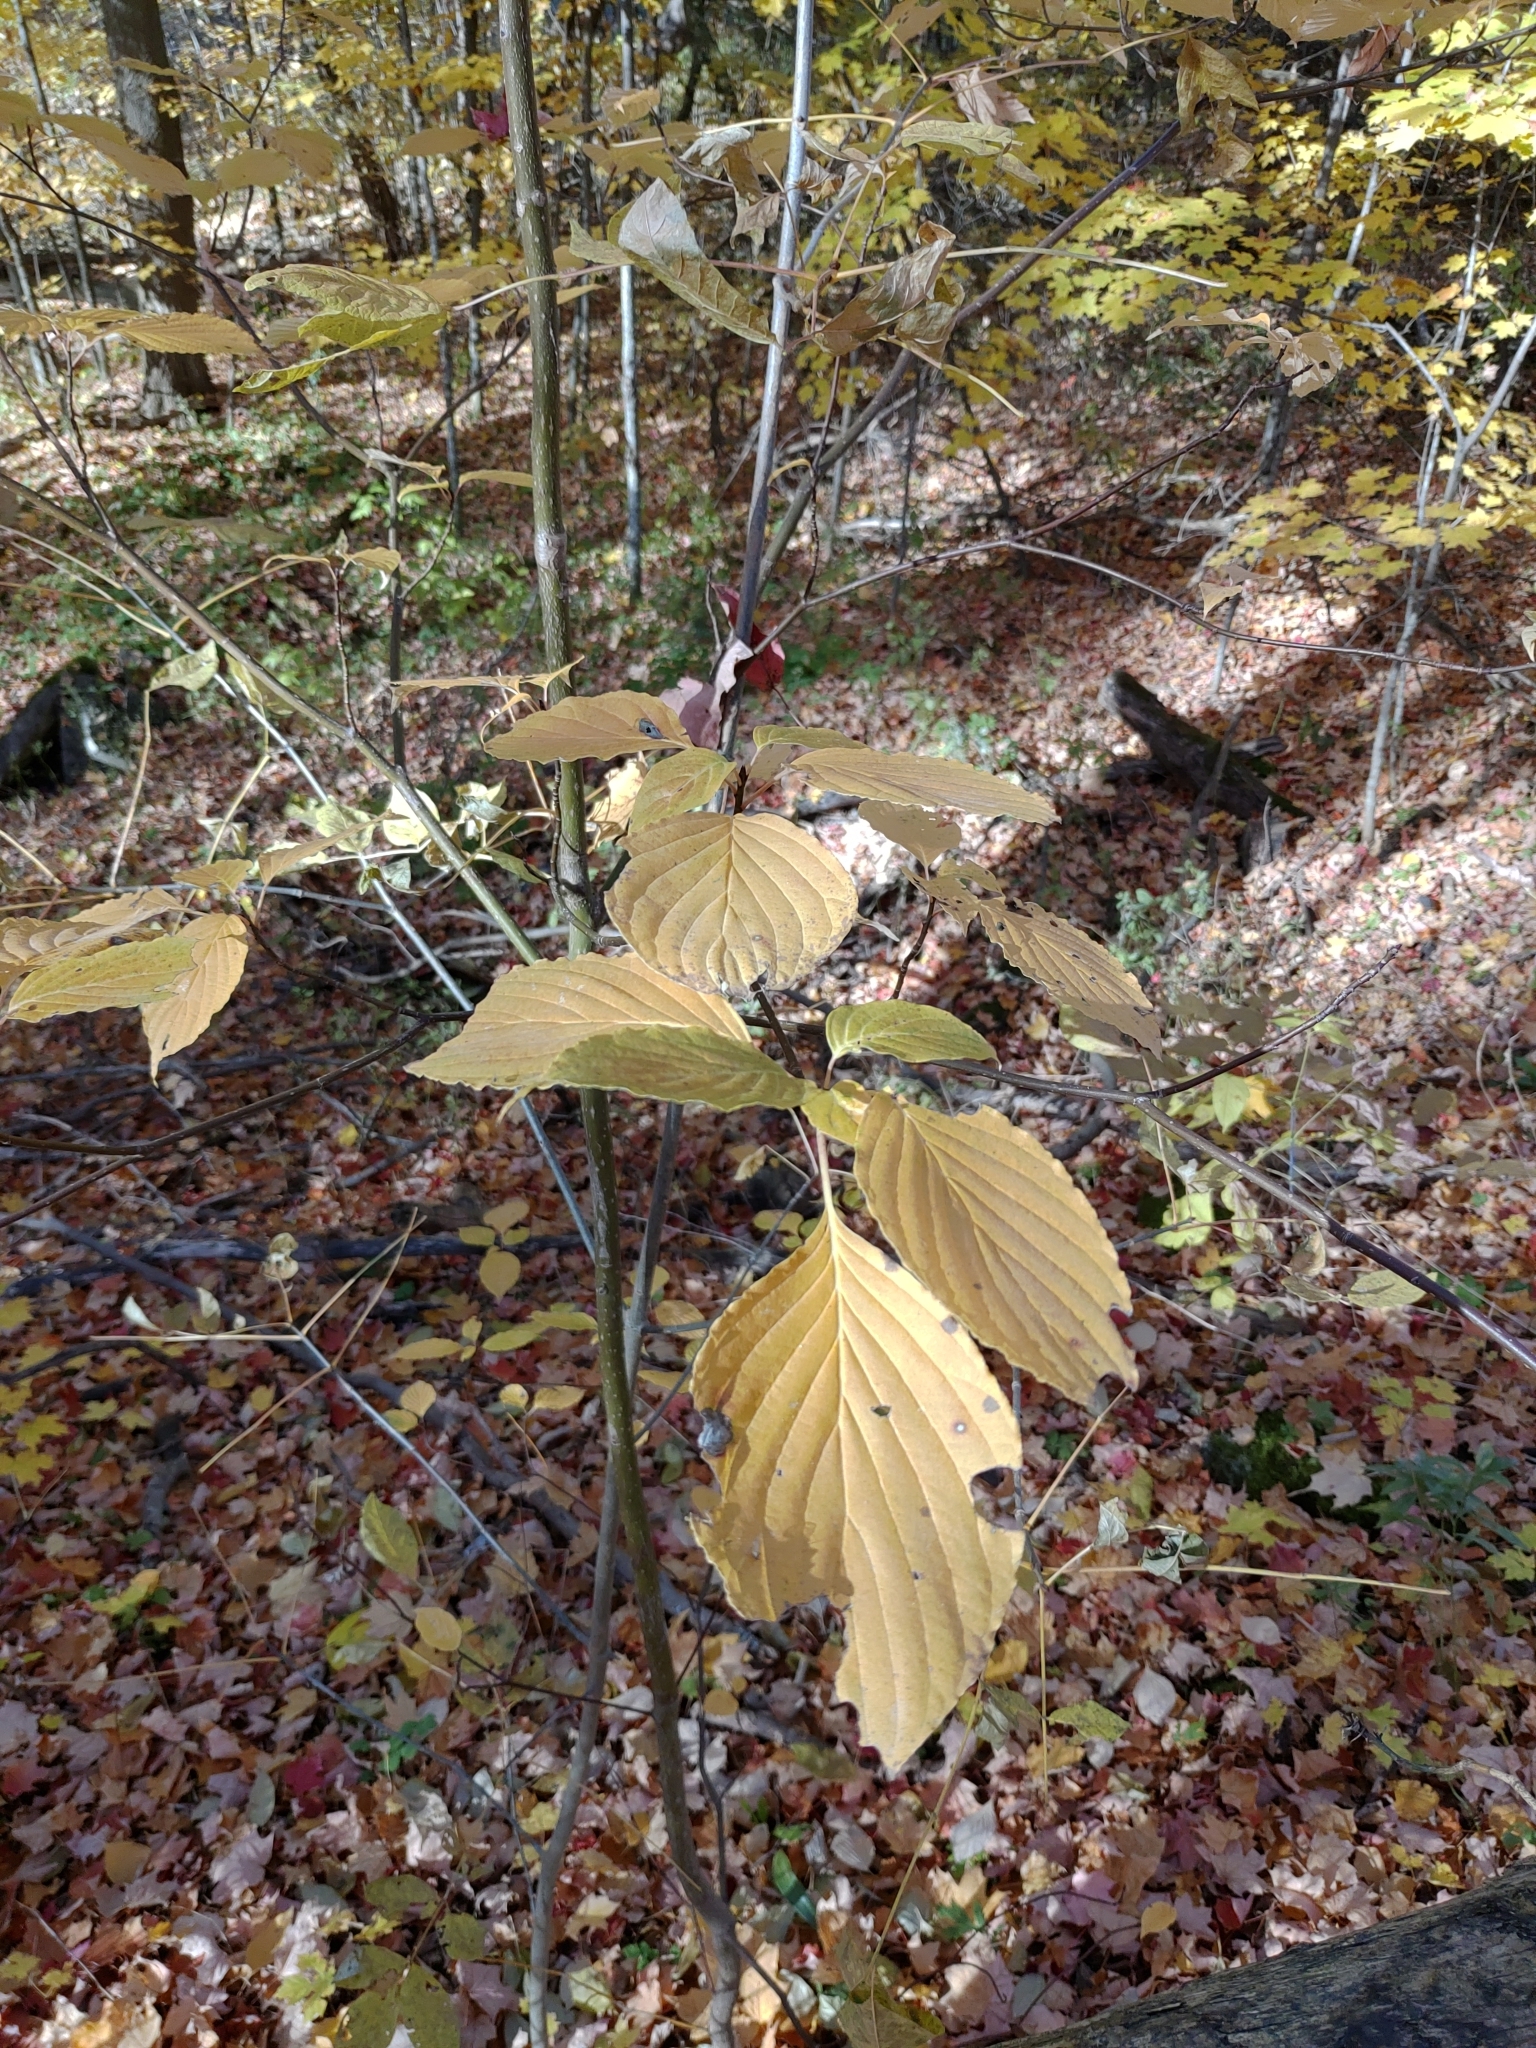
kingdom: Plantae
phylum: Tracheophyta
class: Magnoliopsida
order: Cornales
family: Cornaceae
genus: Cornus
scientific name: Cornus alternifolia
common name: Pagoda dogwood
